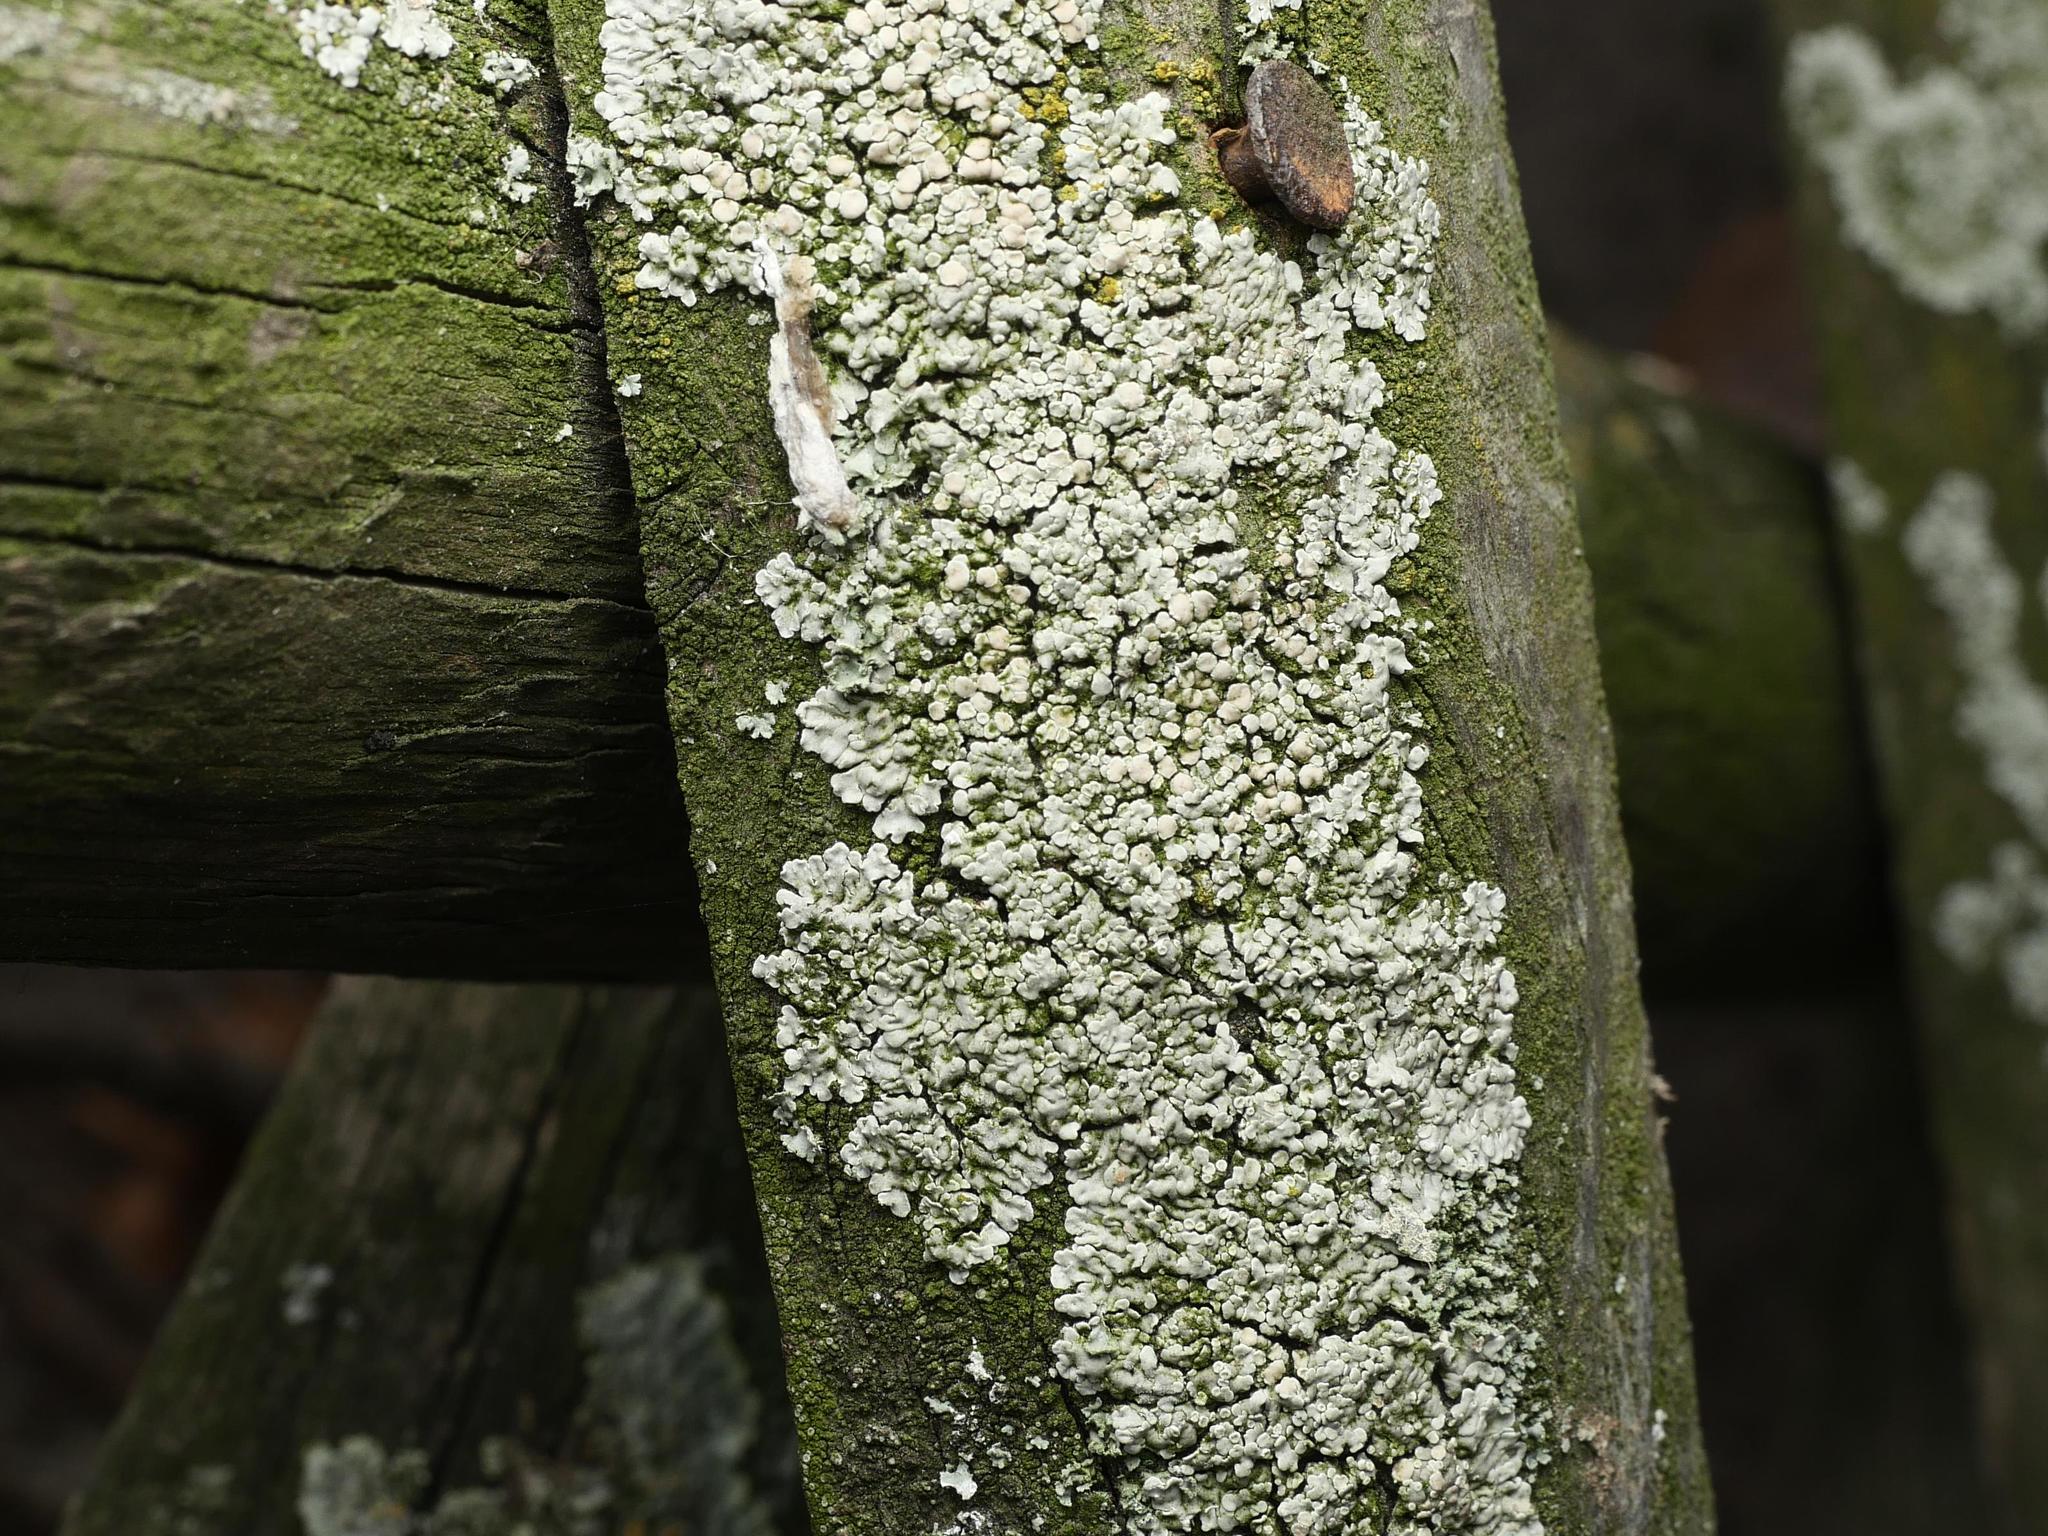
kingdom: Fungi
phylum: Ascomycota
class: Lecanoromycetes
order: Lecanorales
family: Lecanoraceae
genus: Protoparmeliopsis
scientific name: Protoparmeliopsis muralis
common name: Stonewall rim lichen
